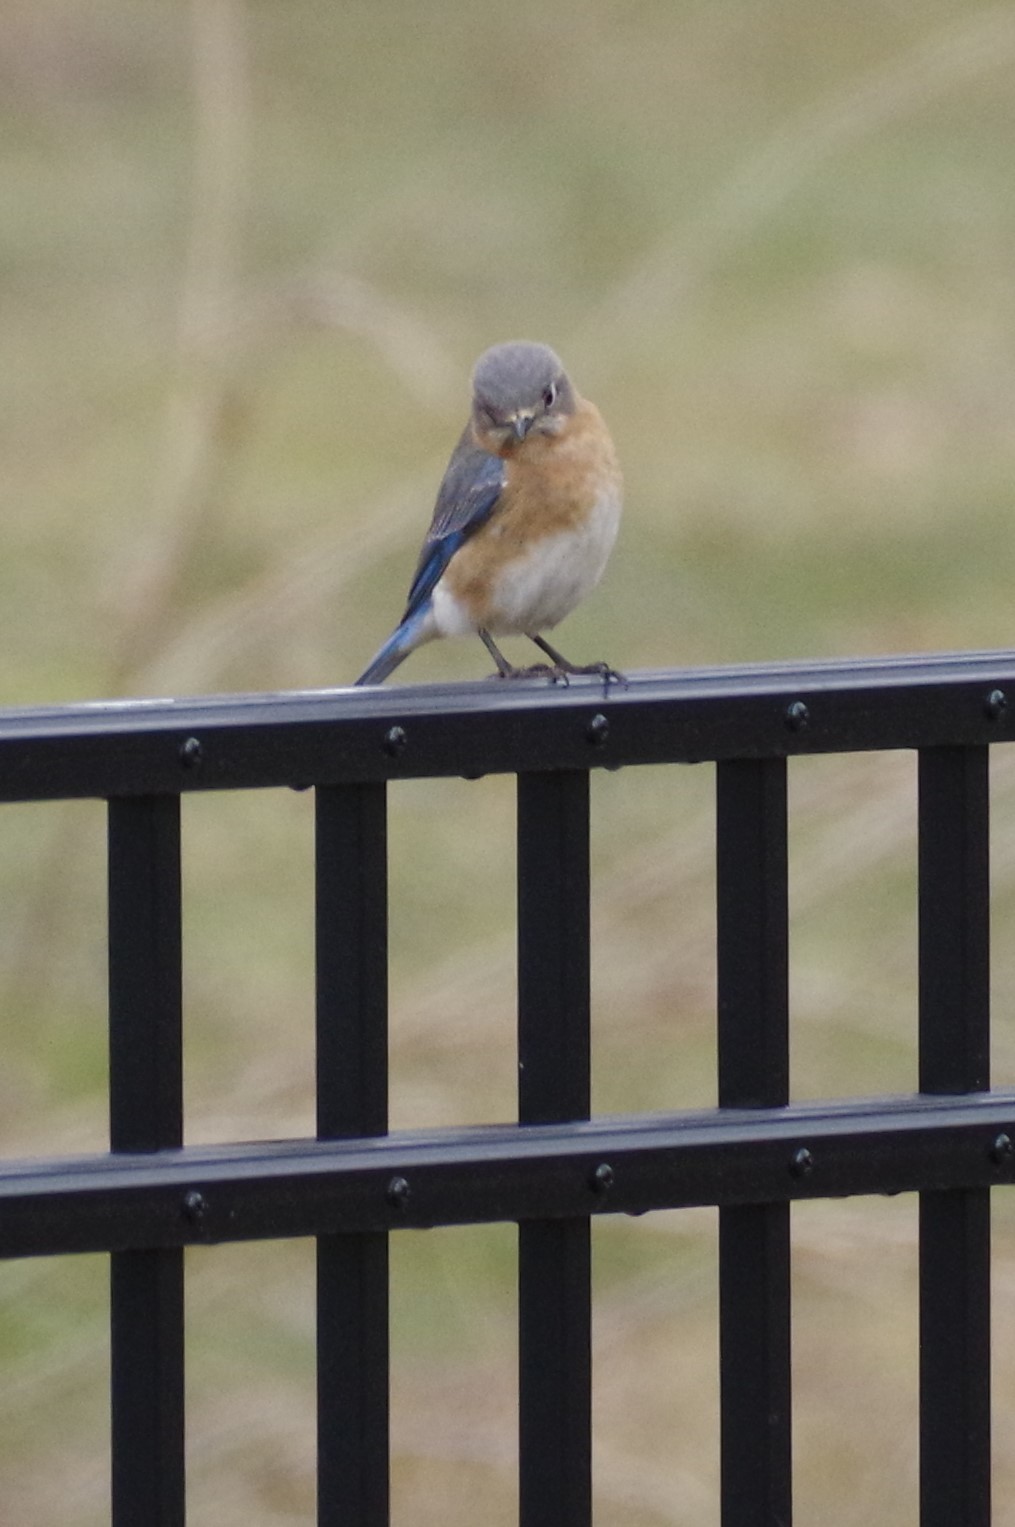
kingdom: Animalia
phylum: Chordata
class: Aves
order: Passeriformes
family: Turdidae
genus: Sialia
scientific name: Sialia sialis
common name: Eastern bluebird
